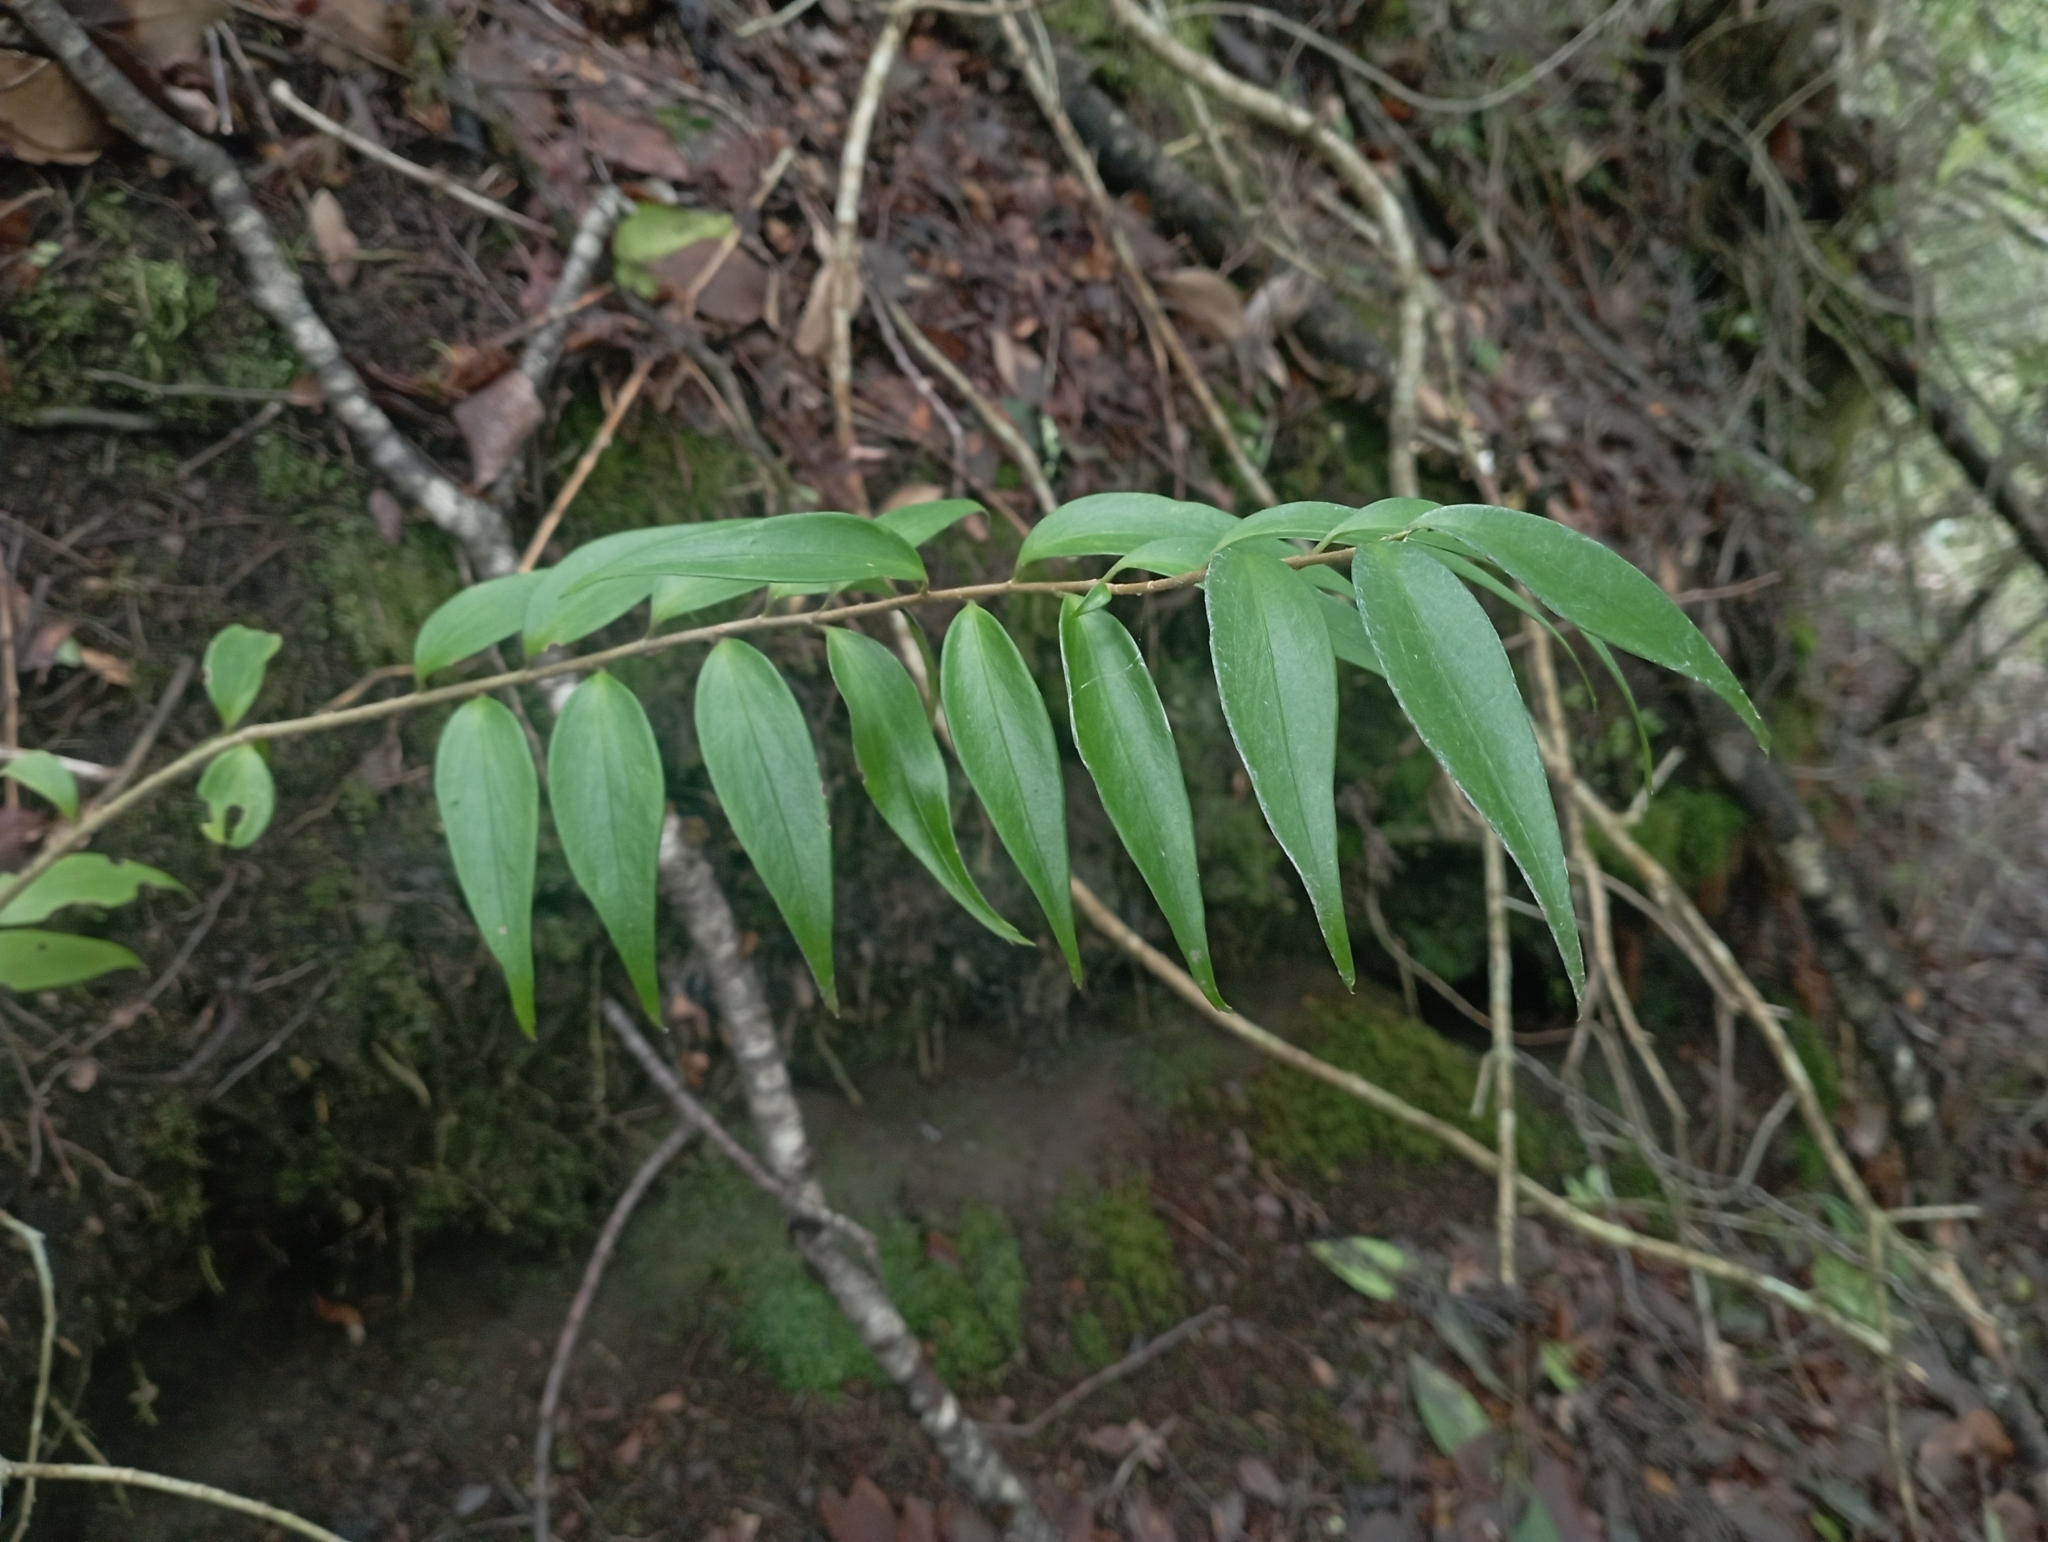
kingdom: Plantae
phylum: Tracheophyta
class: Magnoliopsida
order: Apiales
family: Griseliniaceae
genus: Griselinia
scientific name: Griselinia ruscifolia
